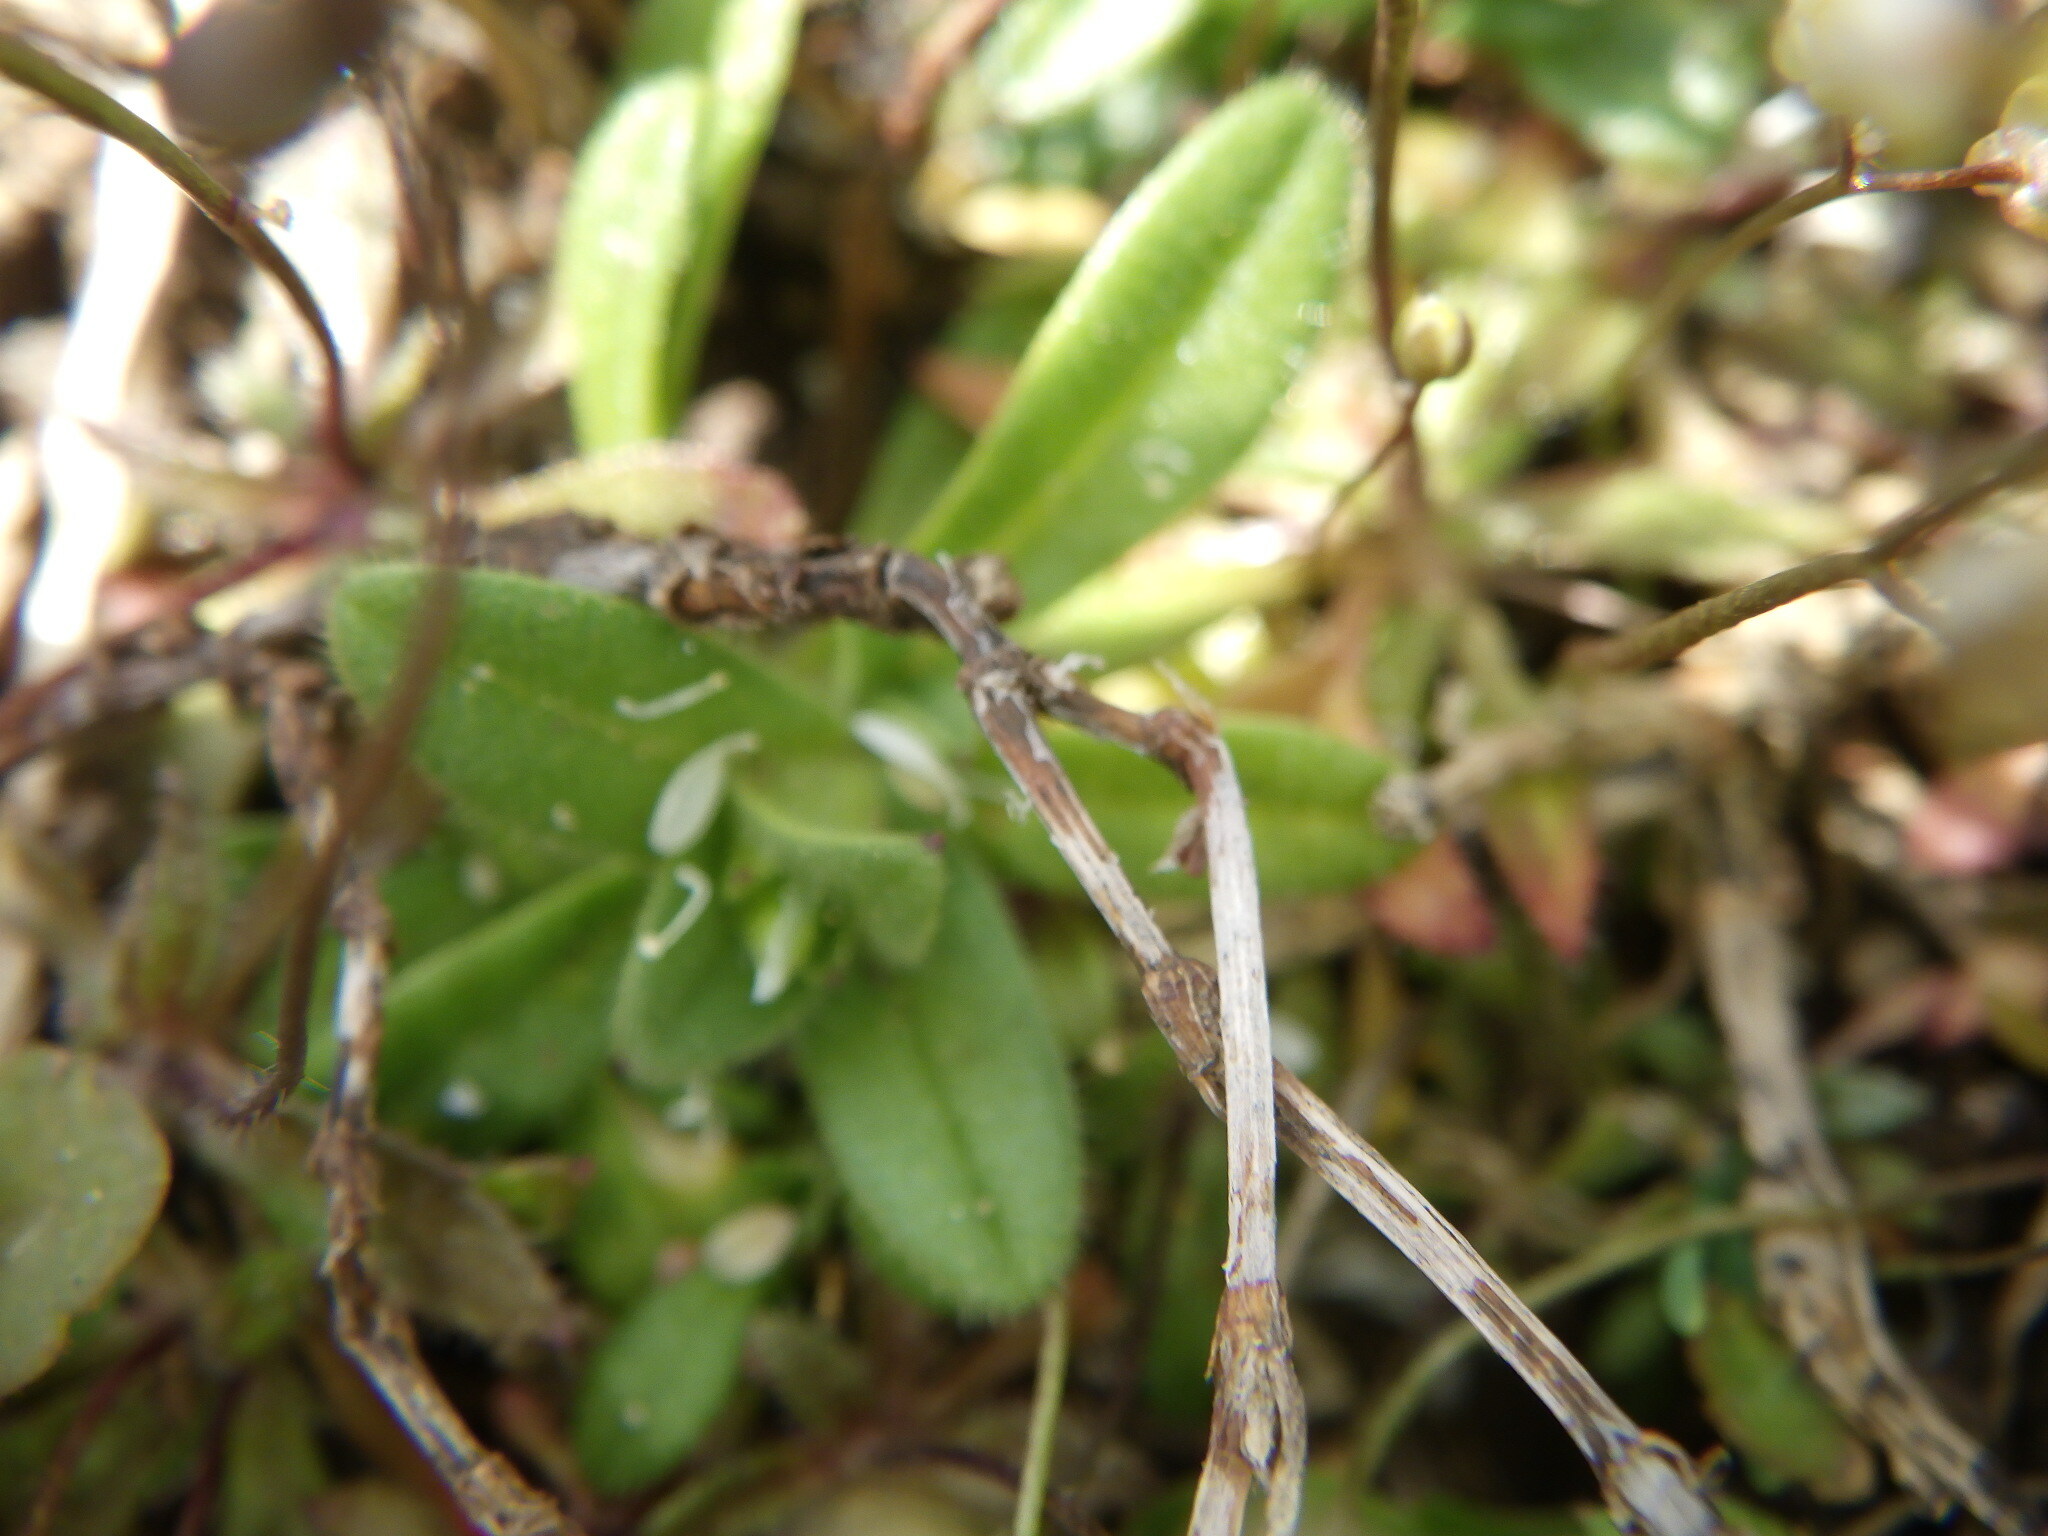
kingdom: Plantae
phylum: Tracheophyta
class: Magnoliopsida
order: Brassicales
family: Brassicaceae
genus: Draba
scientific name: Draba verna
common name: Spring draba
